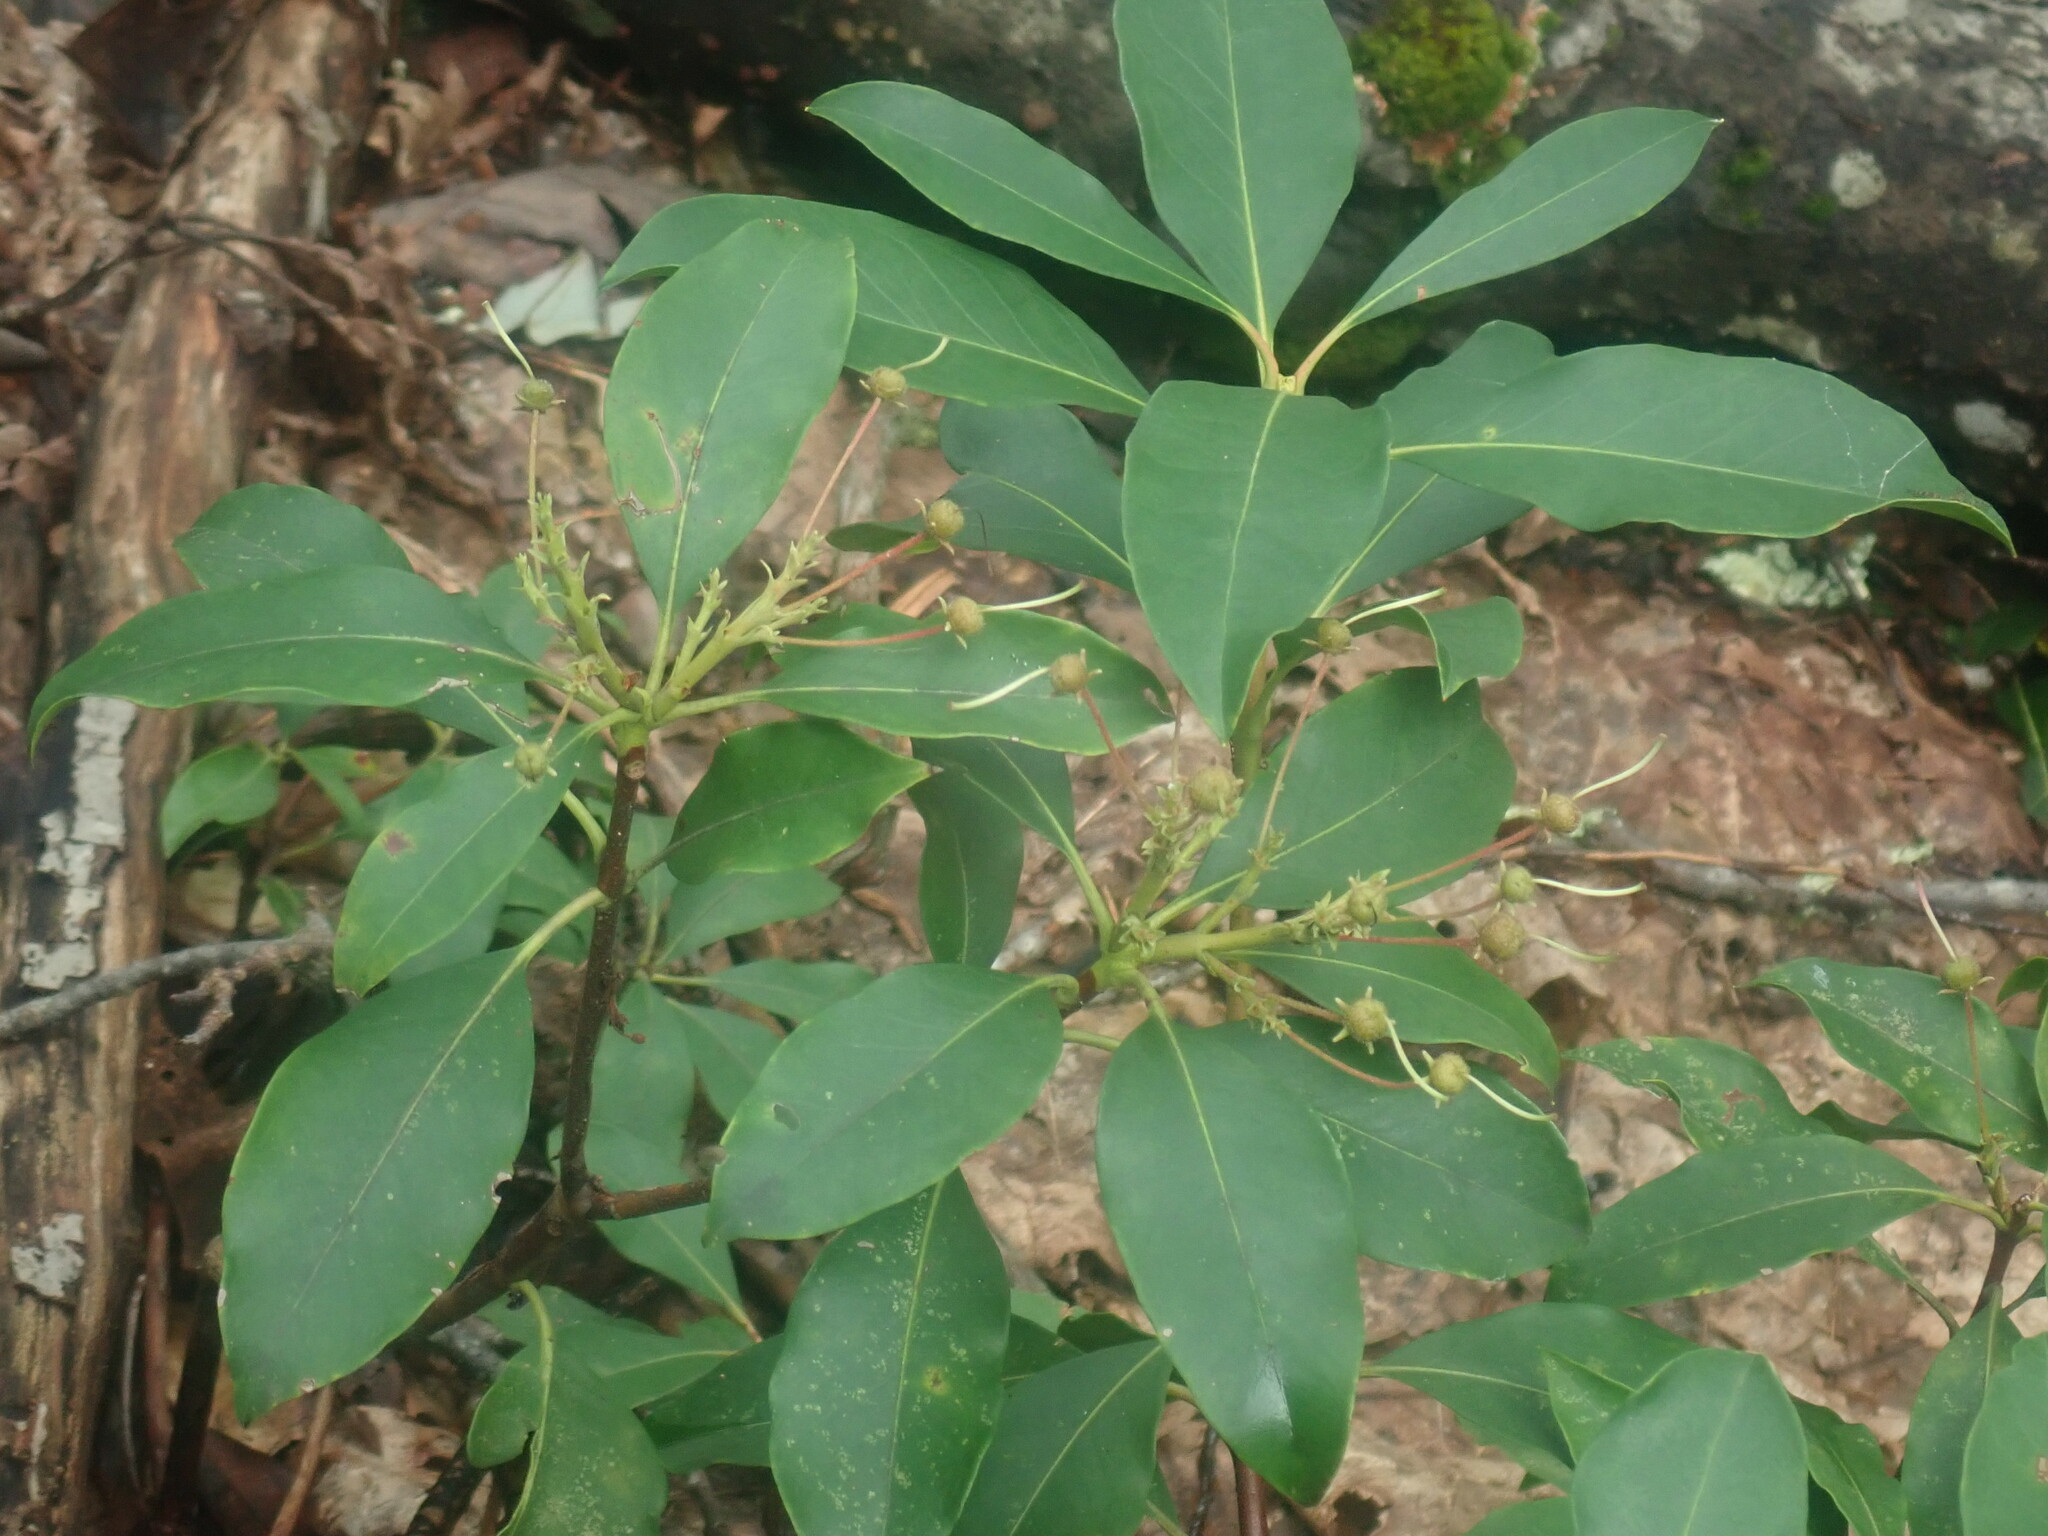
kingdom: Plantae
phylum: Tracheophyta
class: Magnoliopsida
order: Ericales
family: Ericaceae
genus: Kalmia
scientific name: Kalmia latifolia
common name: Mountain-laurel
